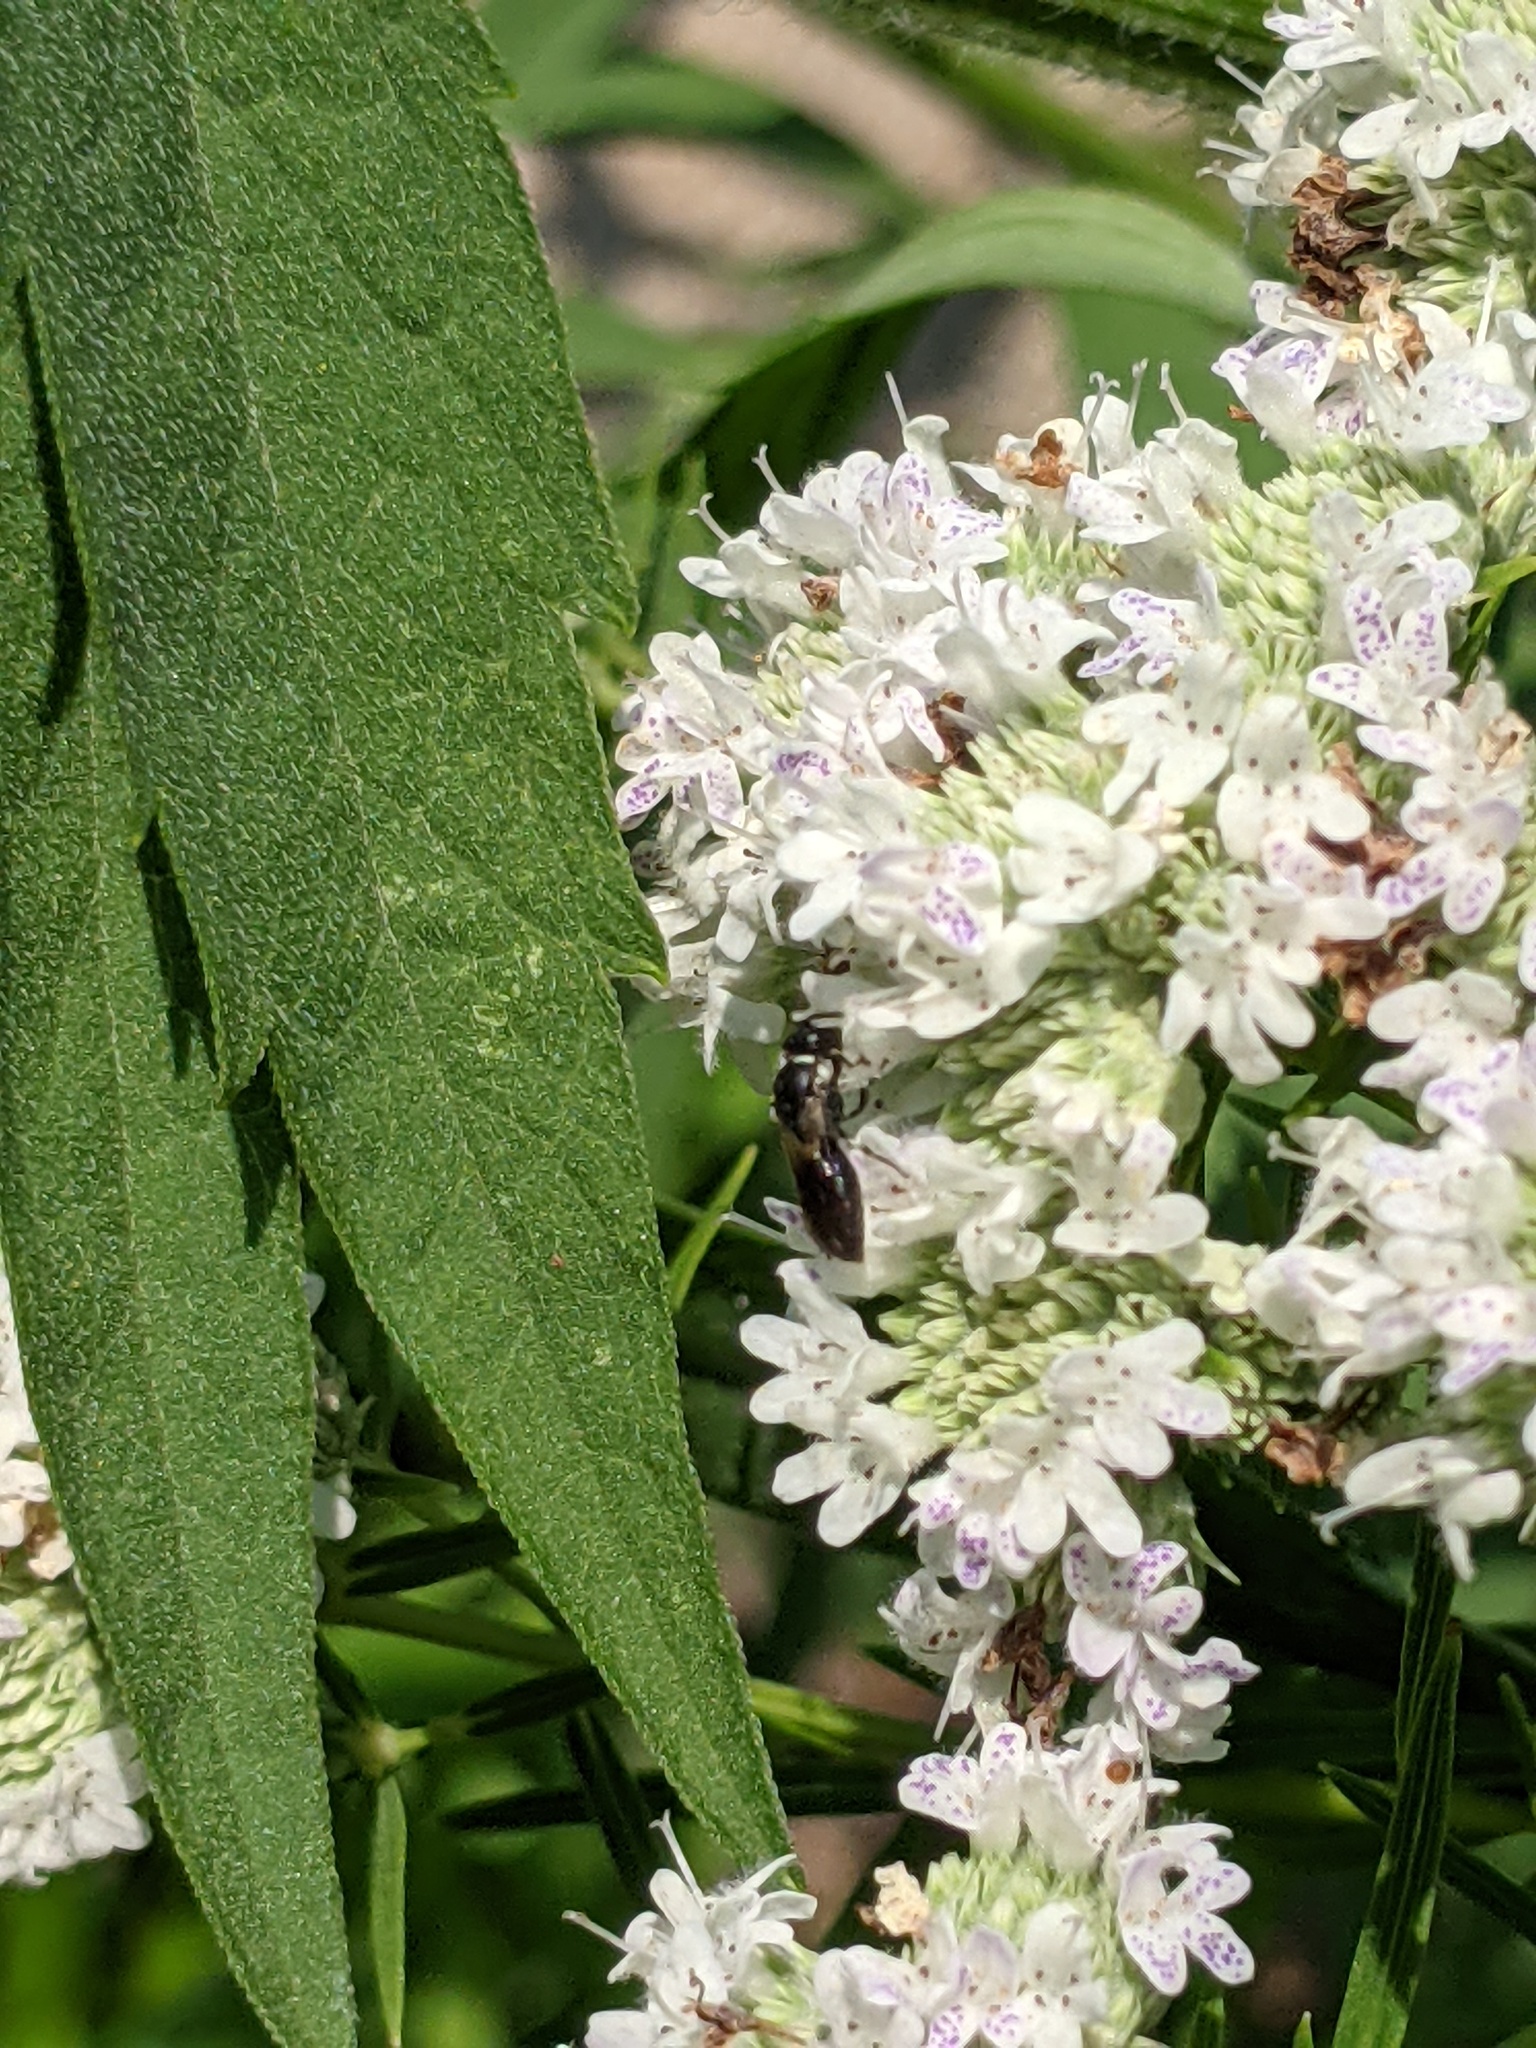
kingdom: Animalia
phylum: Arthropoda
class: Insecta
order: Hymenoptera
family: Colletidae
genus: Hylaeus
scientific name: Hylaeus leptocephalus
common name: Slender-faced masked bee
